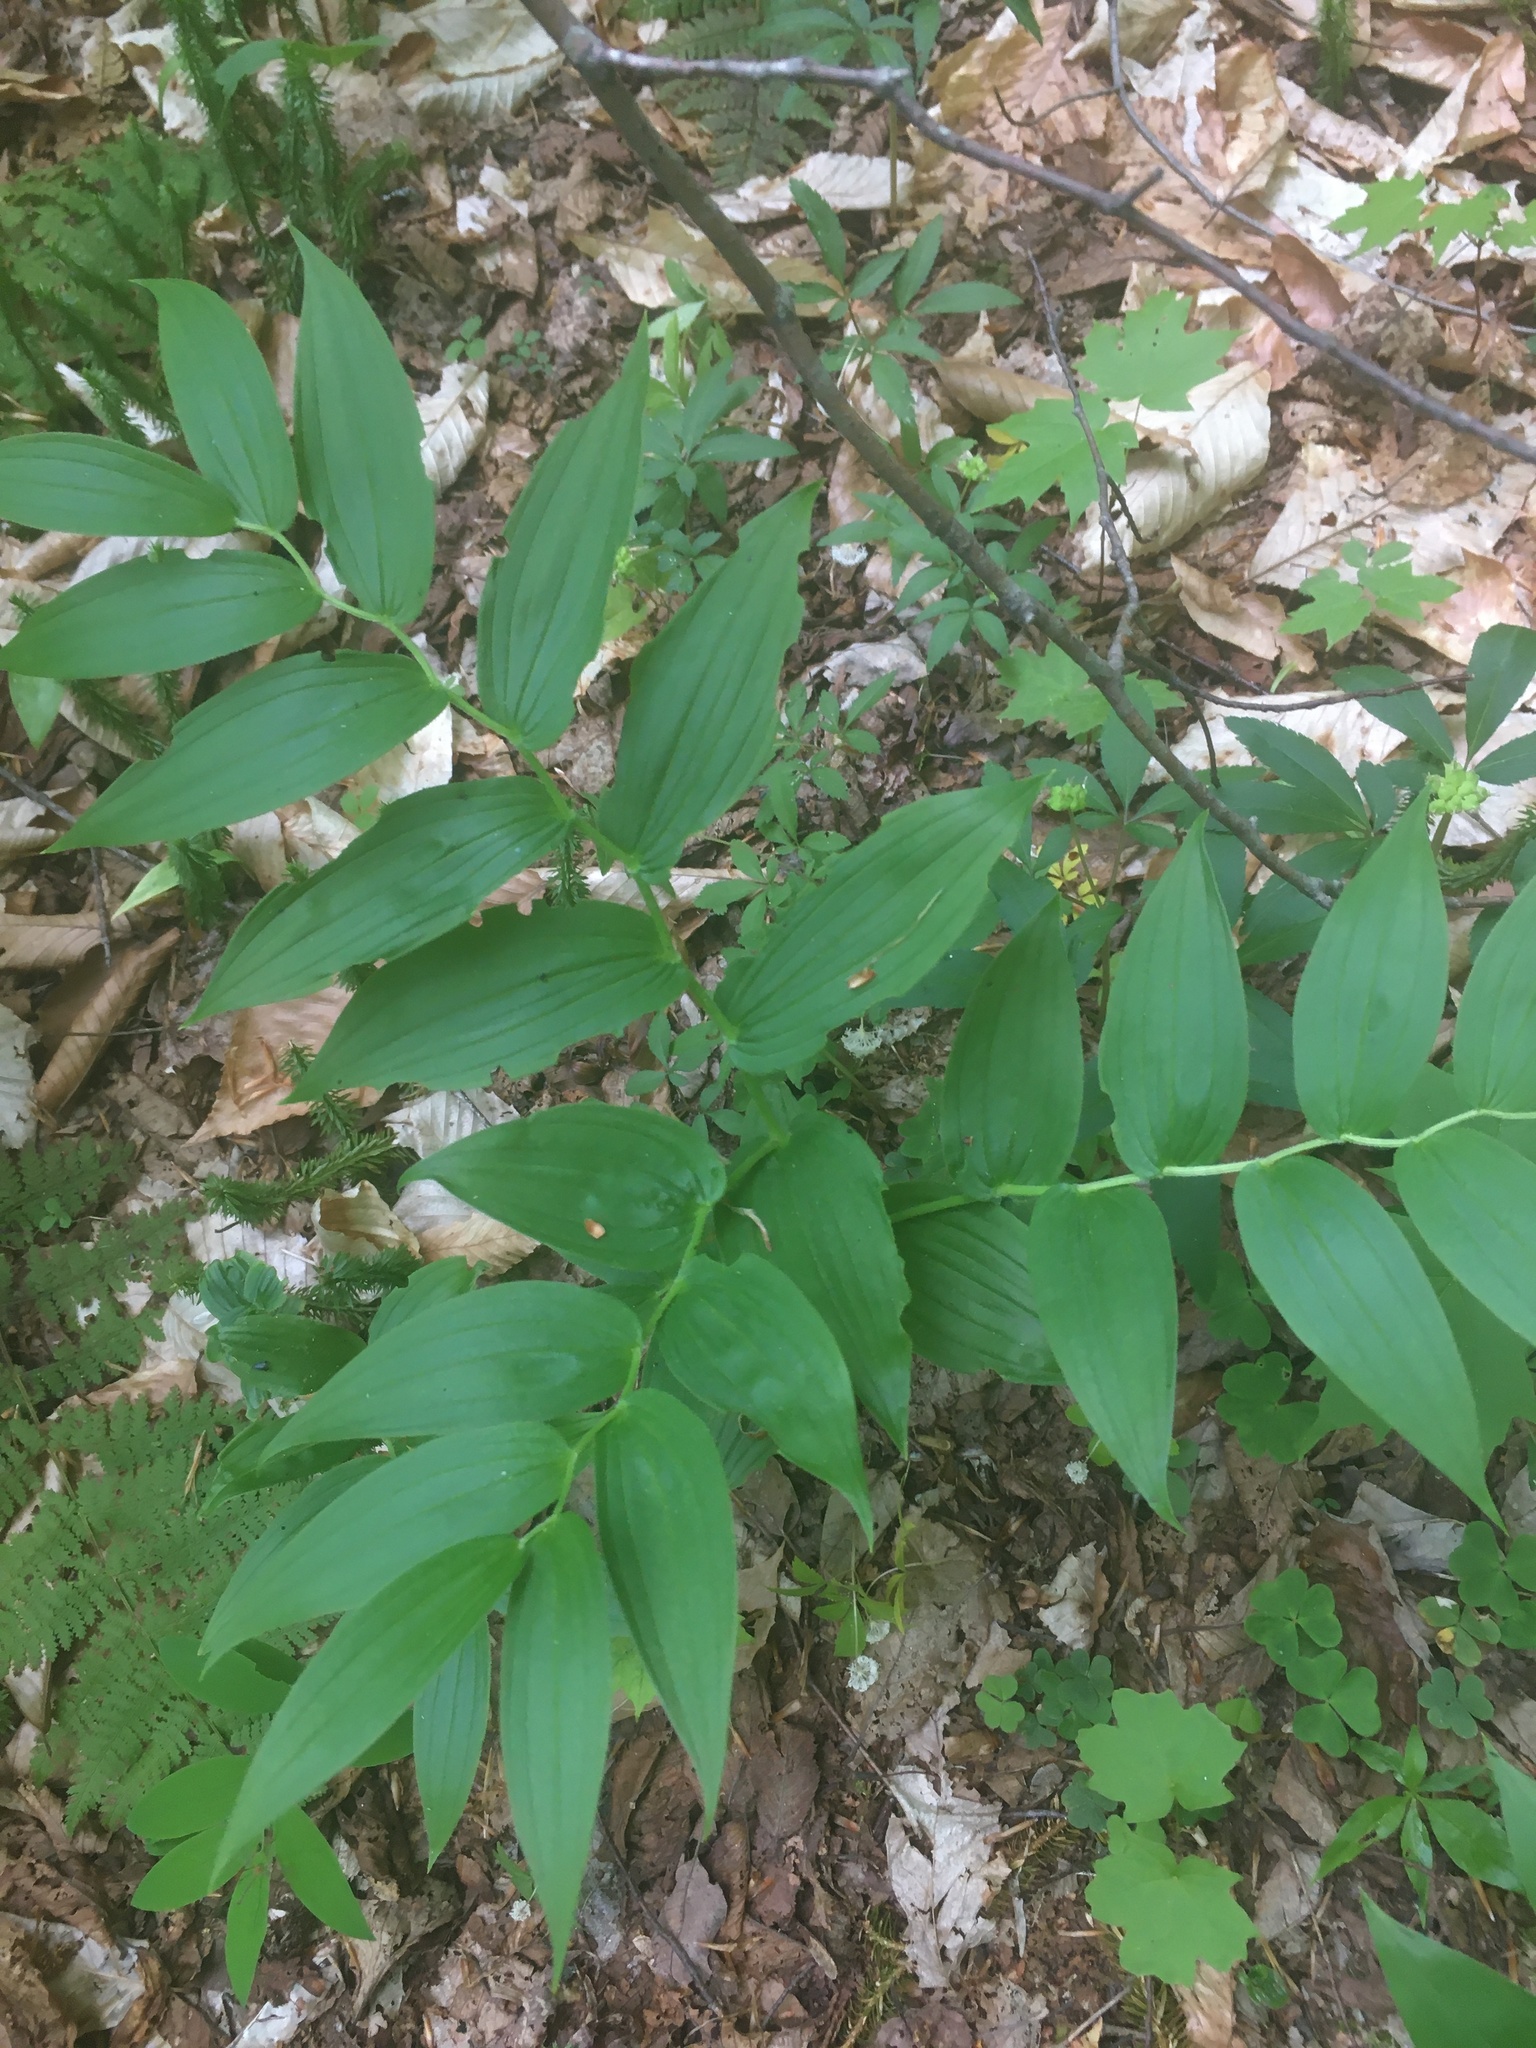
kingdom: Plantae
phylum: Tracheophyta
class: Liliopsida
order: Liliales
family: Liliaceae
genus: Streptopus
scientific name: Streptopus lanceolatus
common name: Rose mandarin
